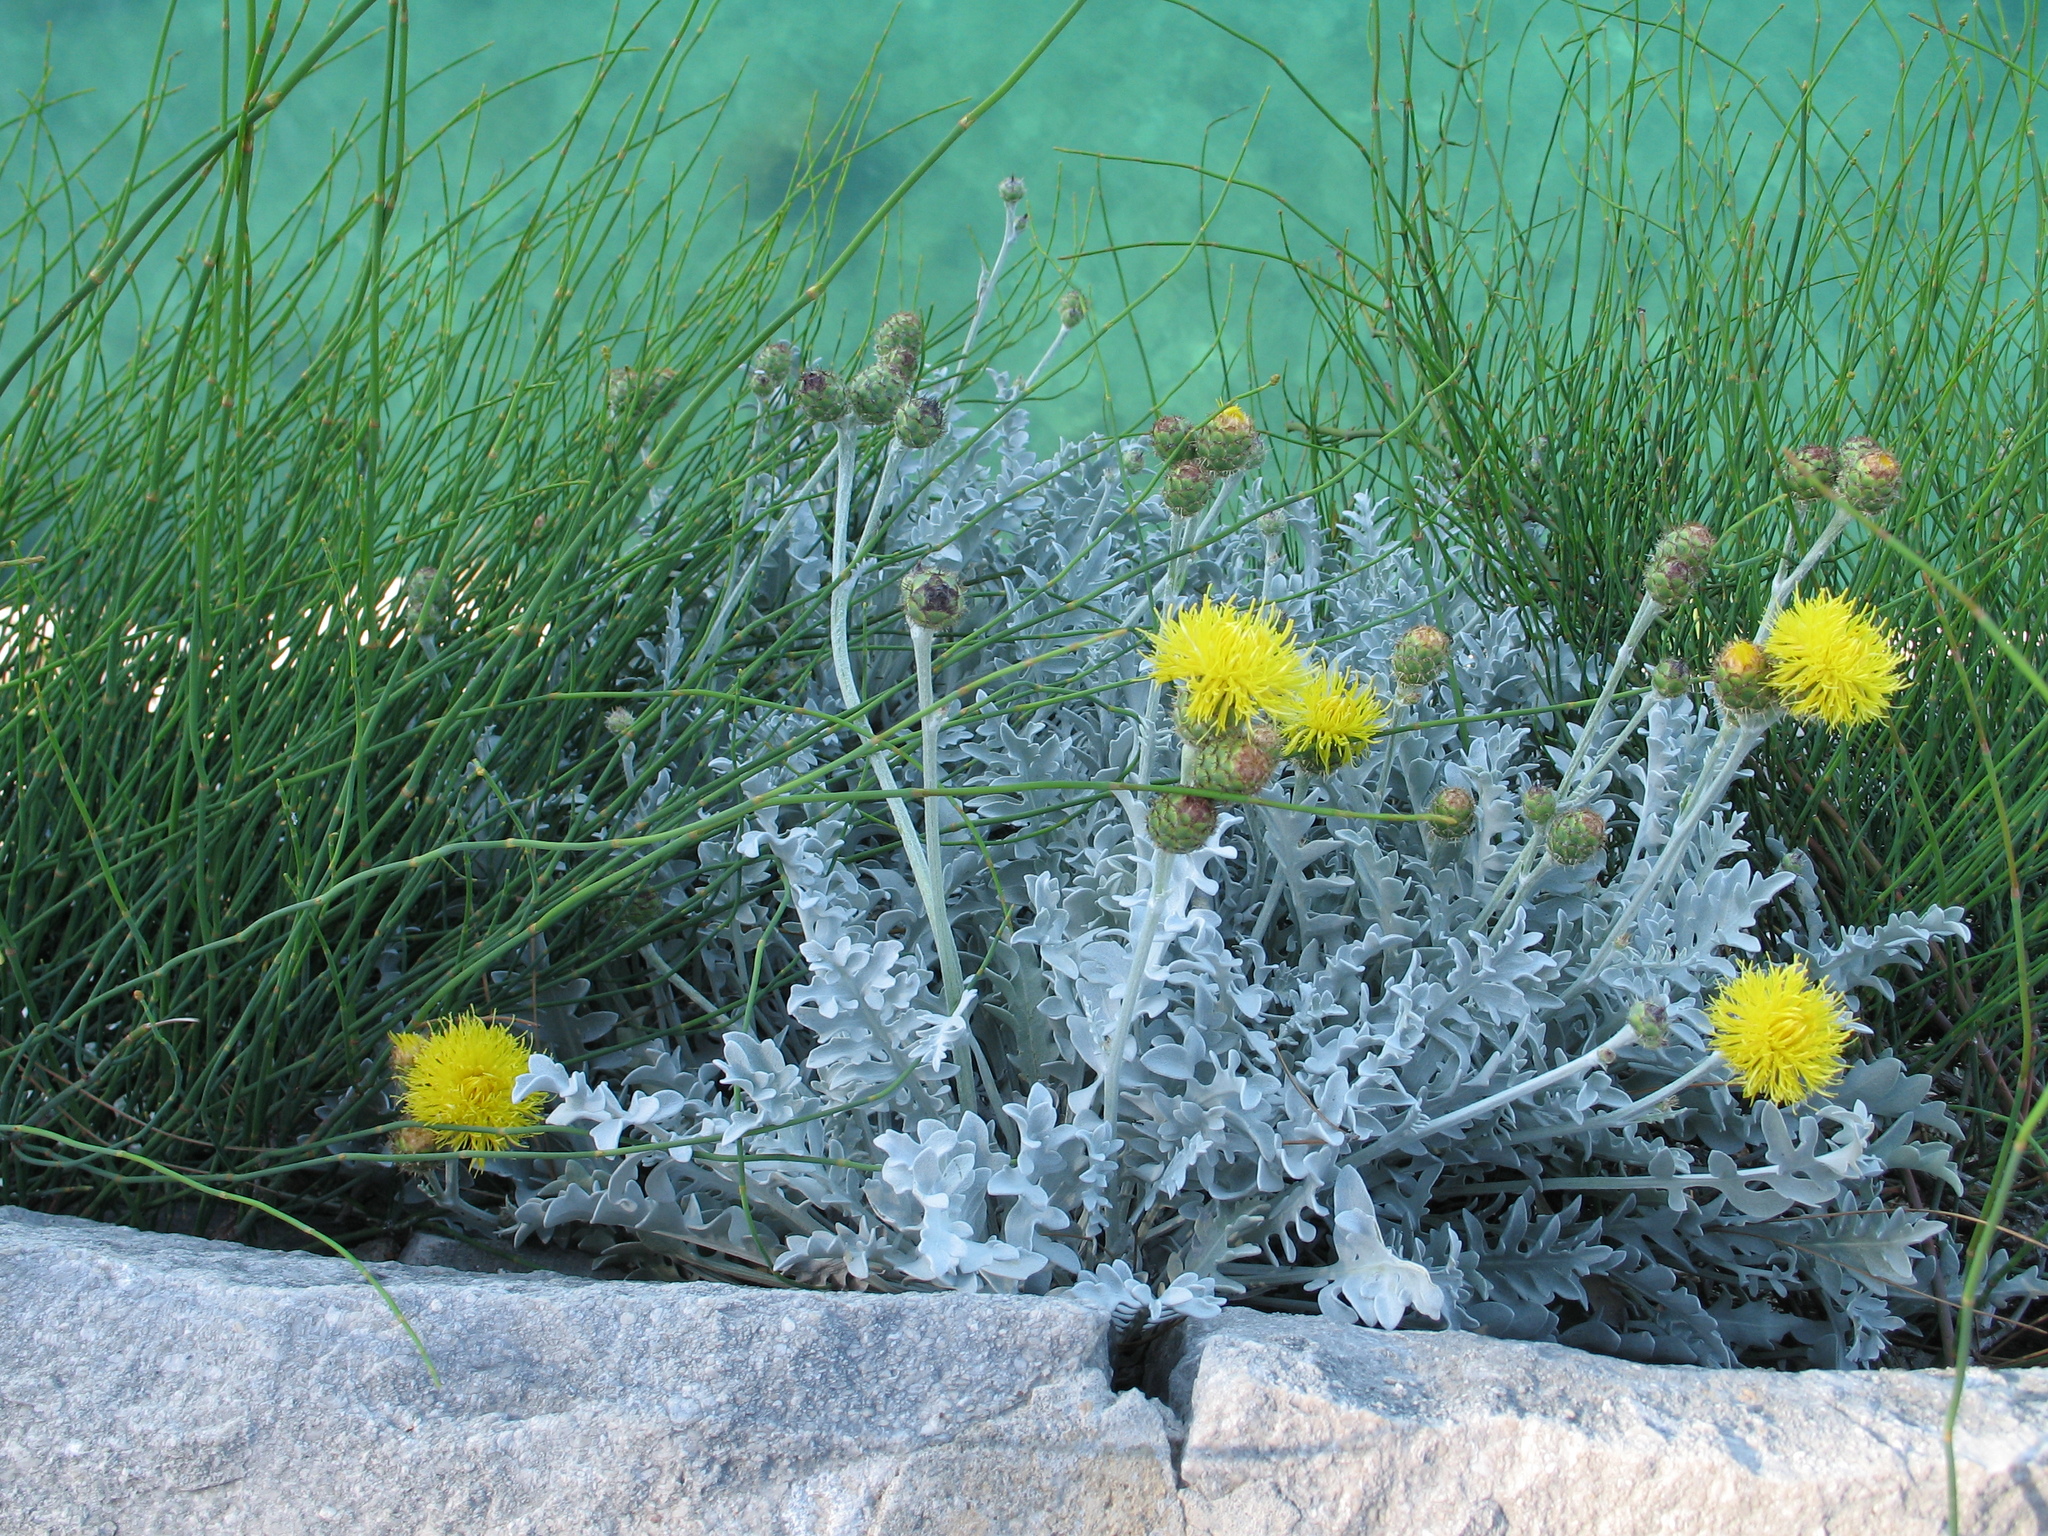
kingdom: Plantae
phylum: Tracheophyta
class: Magnoliopsida
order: Asterales
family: Asteraceae
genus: Centaurea
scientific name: Centaurea ragusina
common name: Dusty-miller
